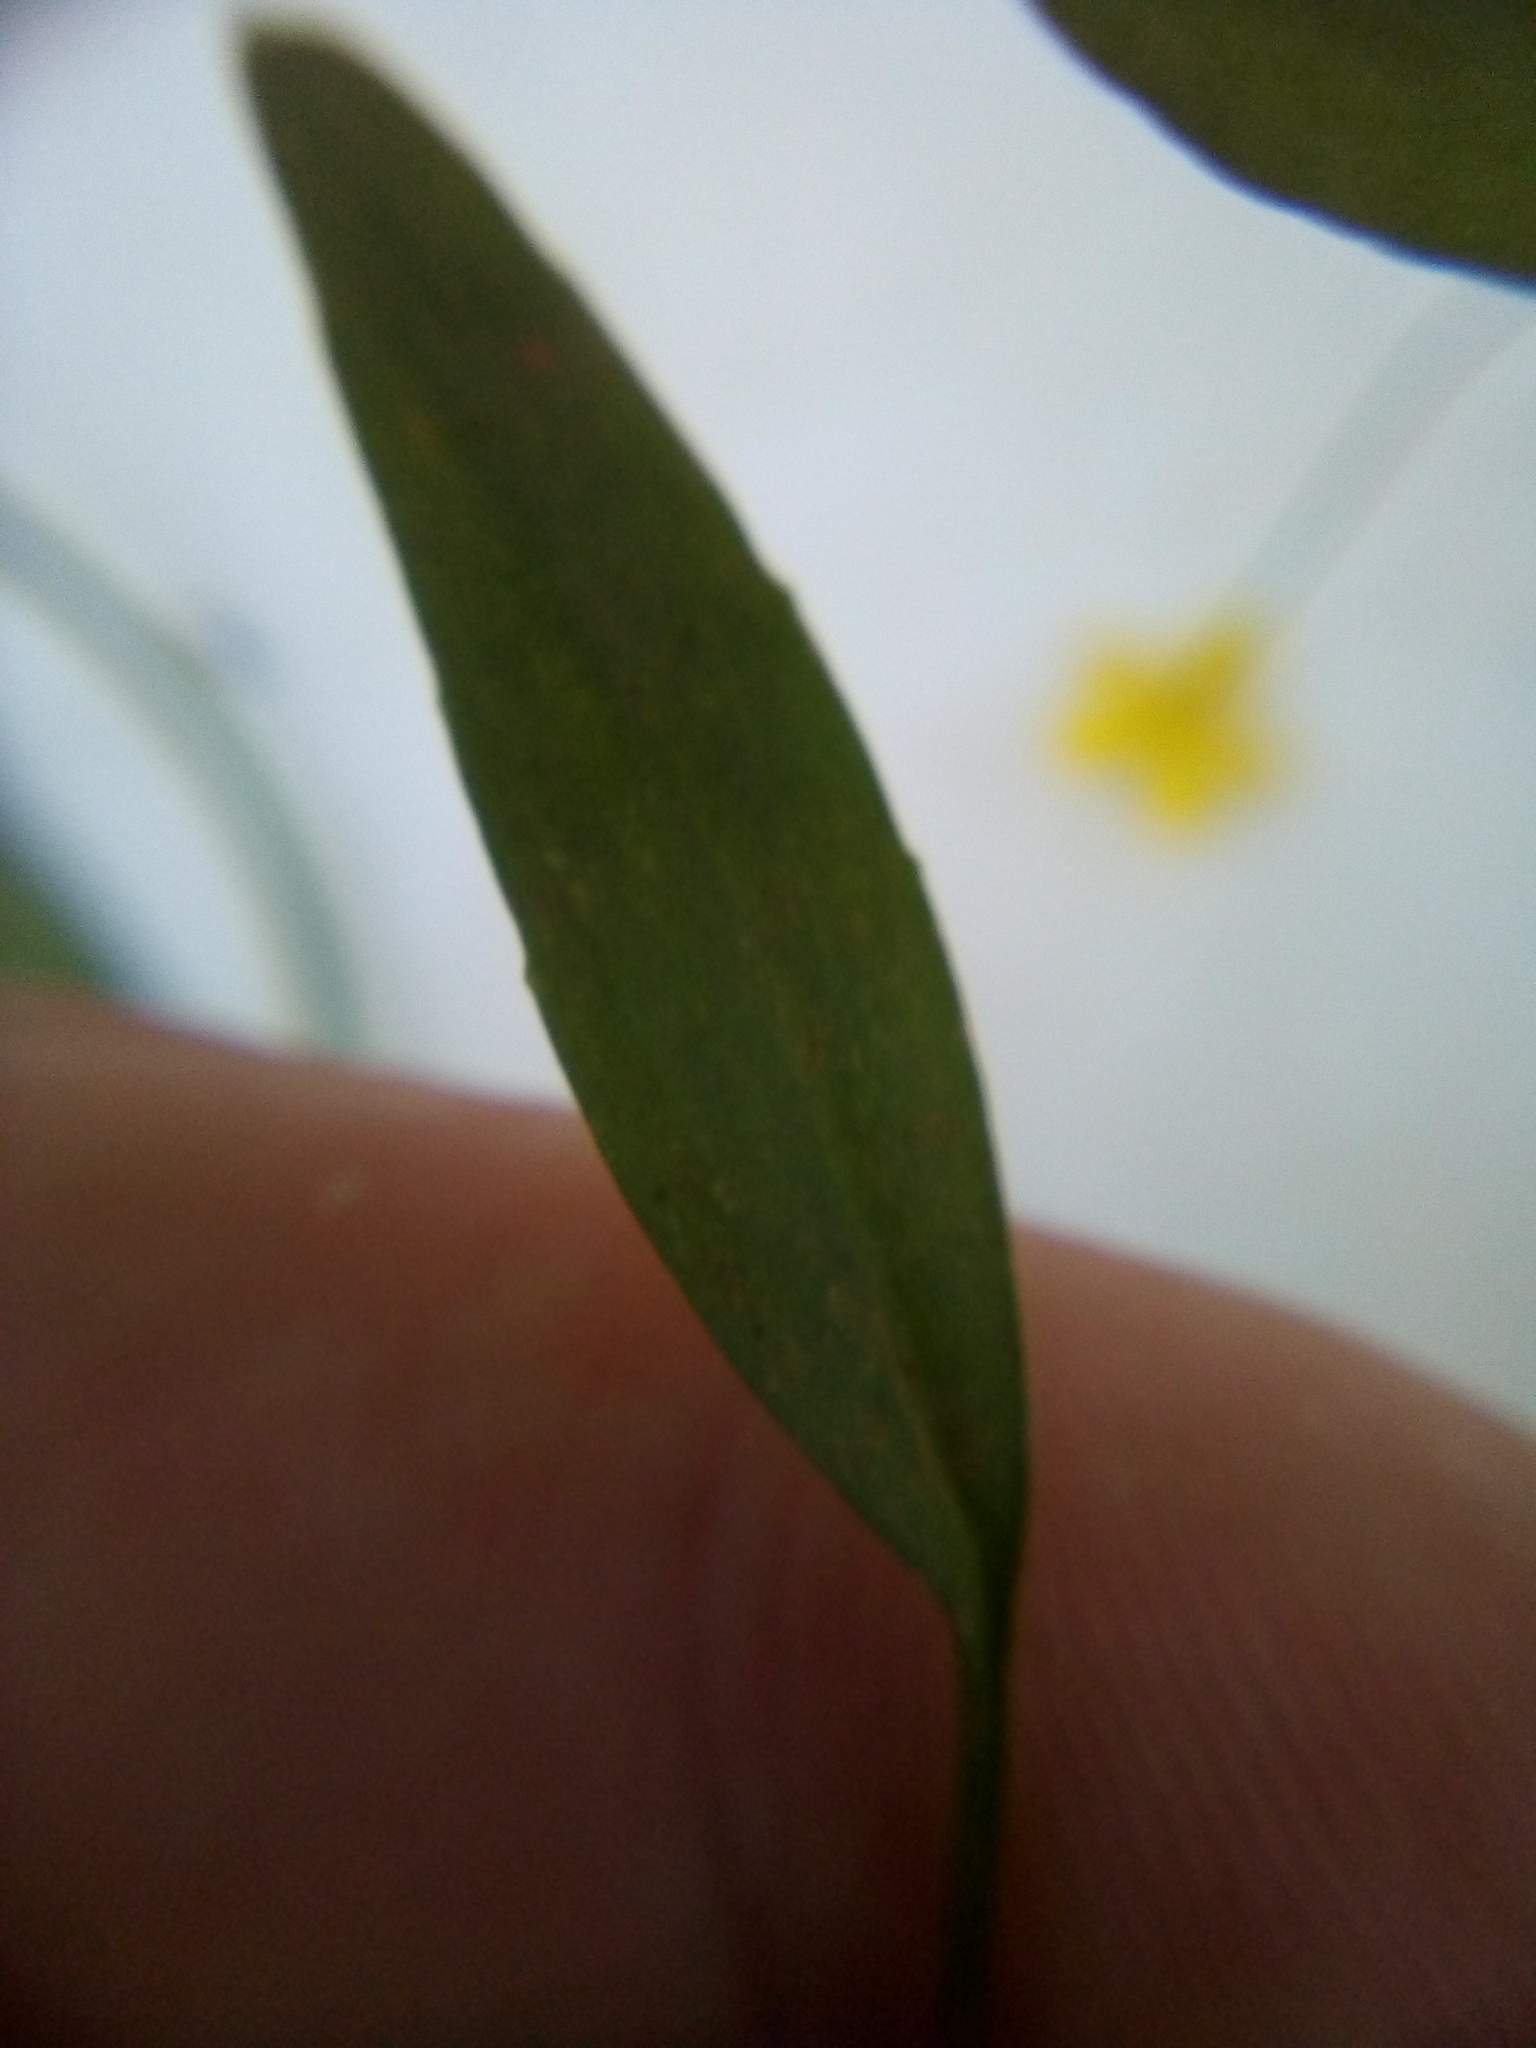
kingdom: Plantae
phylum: Tracheophyta
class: Magnoliopsida
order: Ranunculales
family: Ranunculaceae
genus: Ranunculus
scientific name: Ranunculus flammula
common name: Lesser spearwort
